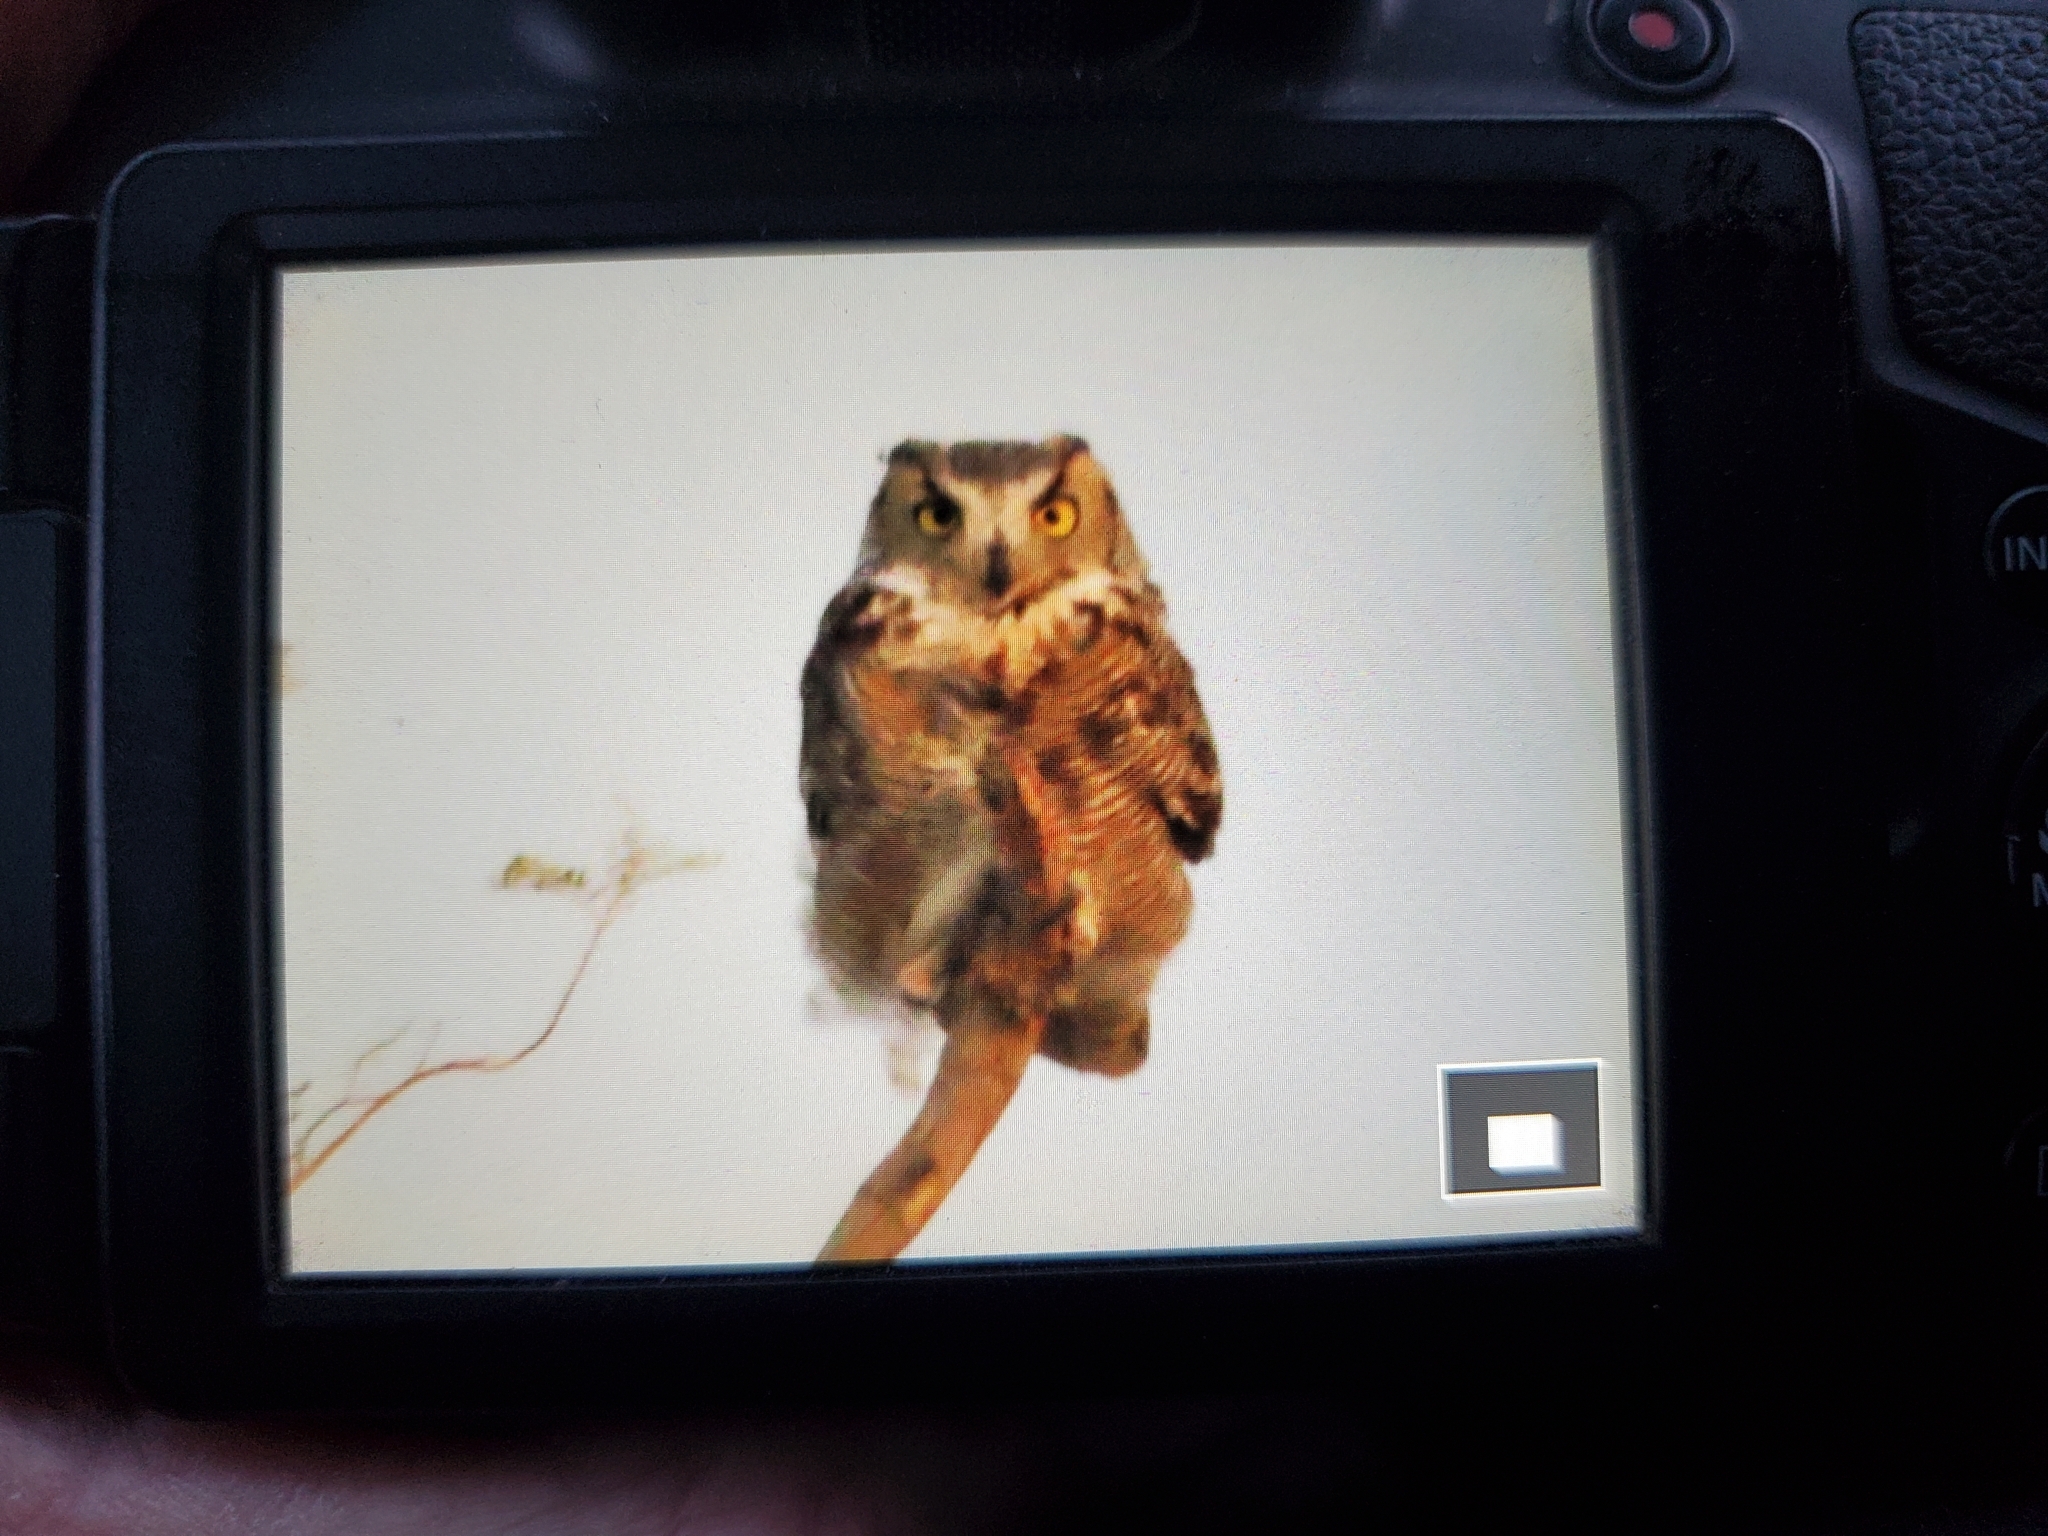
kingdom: Animalia
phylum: Chordata
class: Aves
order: Strigiformes
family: Strigidae
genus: Bubo
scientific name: Bubo virginianus
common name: Great horned owl
